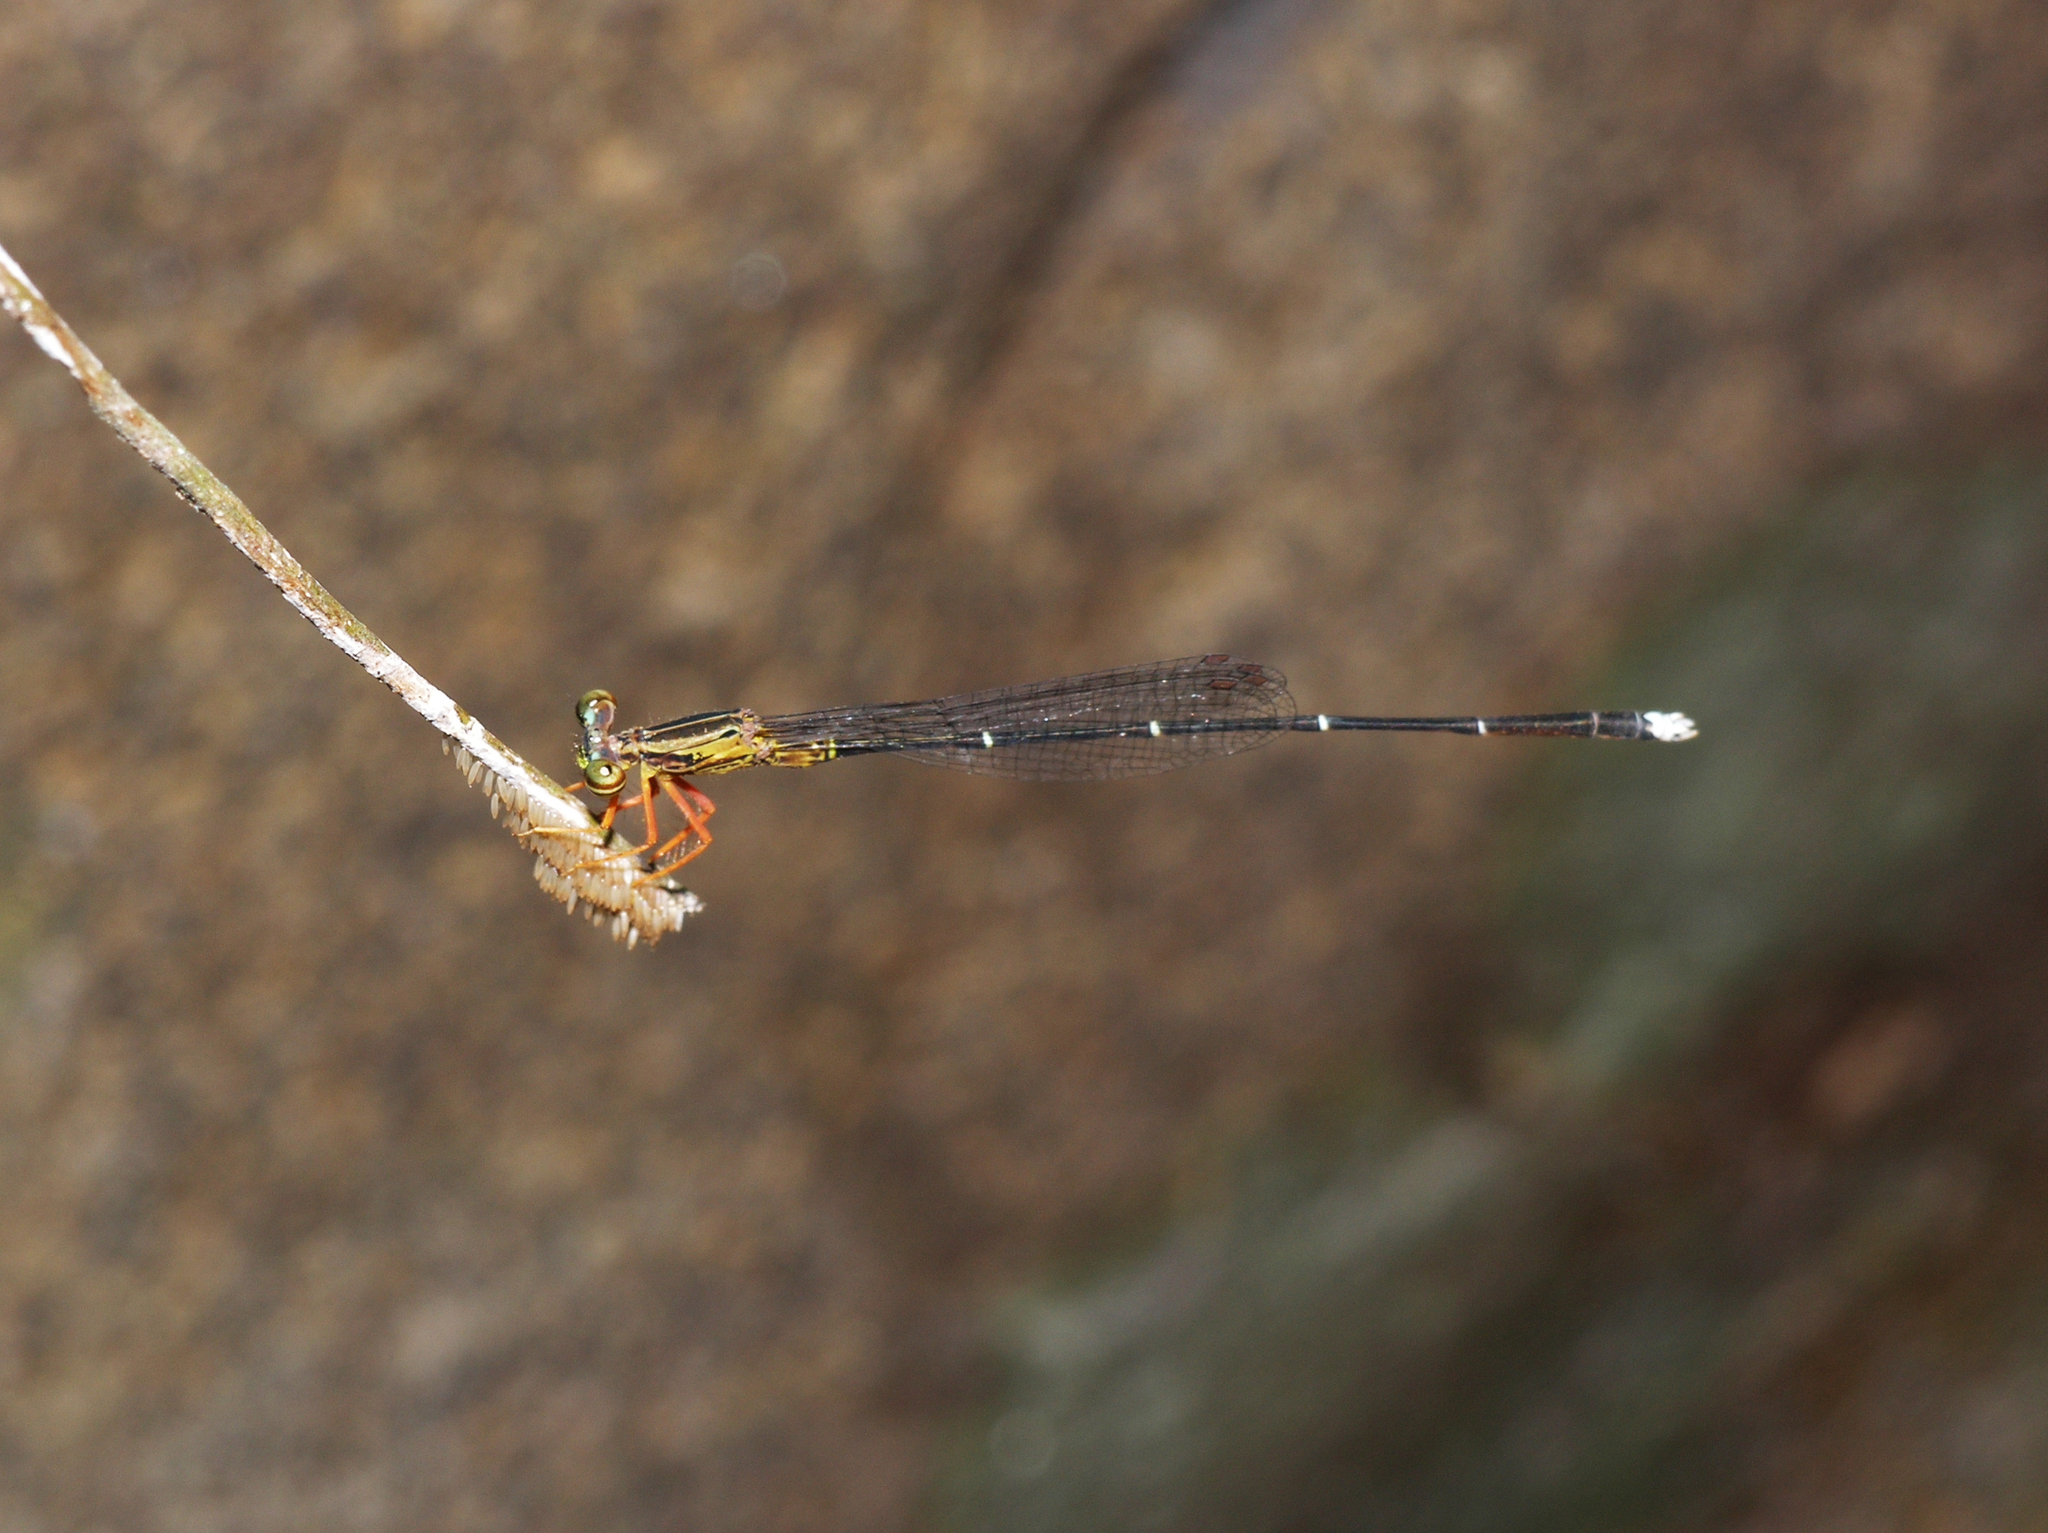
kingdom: Animalia
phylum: Arthropoda
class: Insecta
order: Odonata
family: Platycnemididae
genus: Copera
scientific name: Copera vittata
